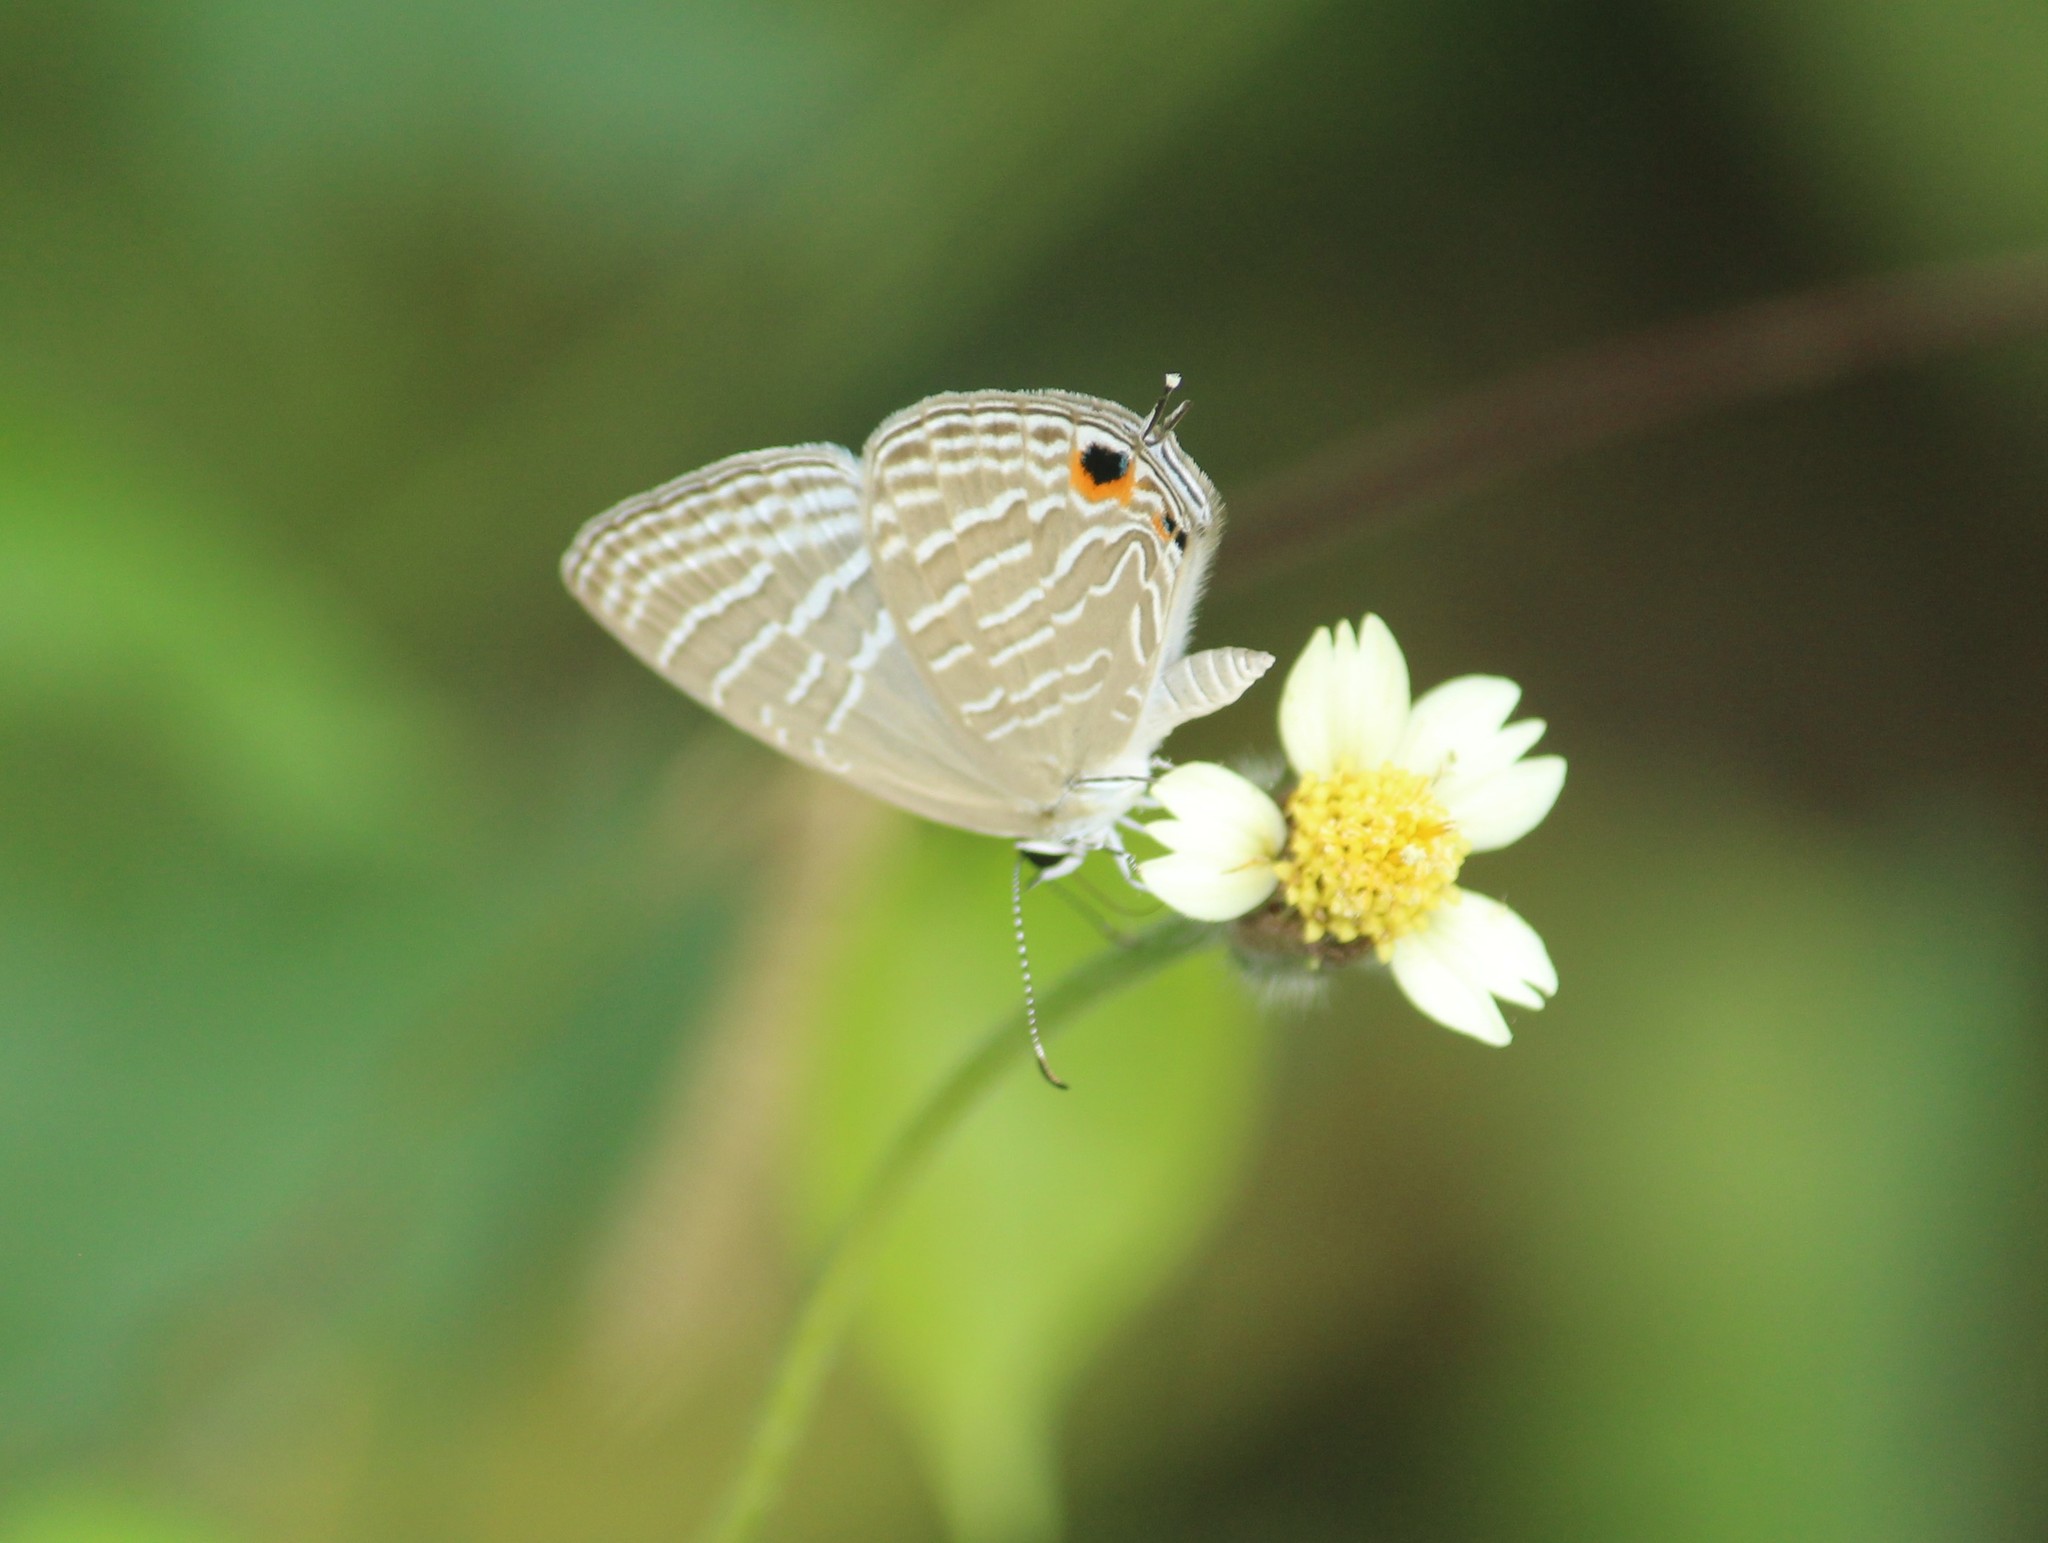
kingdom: Animalia
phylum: Arthropoda
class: Insecta
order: Lepidoptera
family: Lycaenidae
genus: Jamides
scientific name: Jamides celeno
